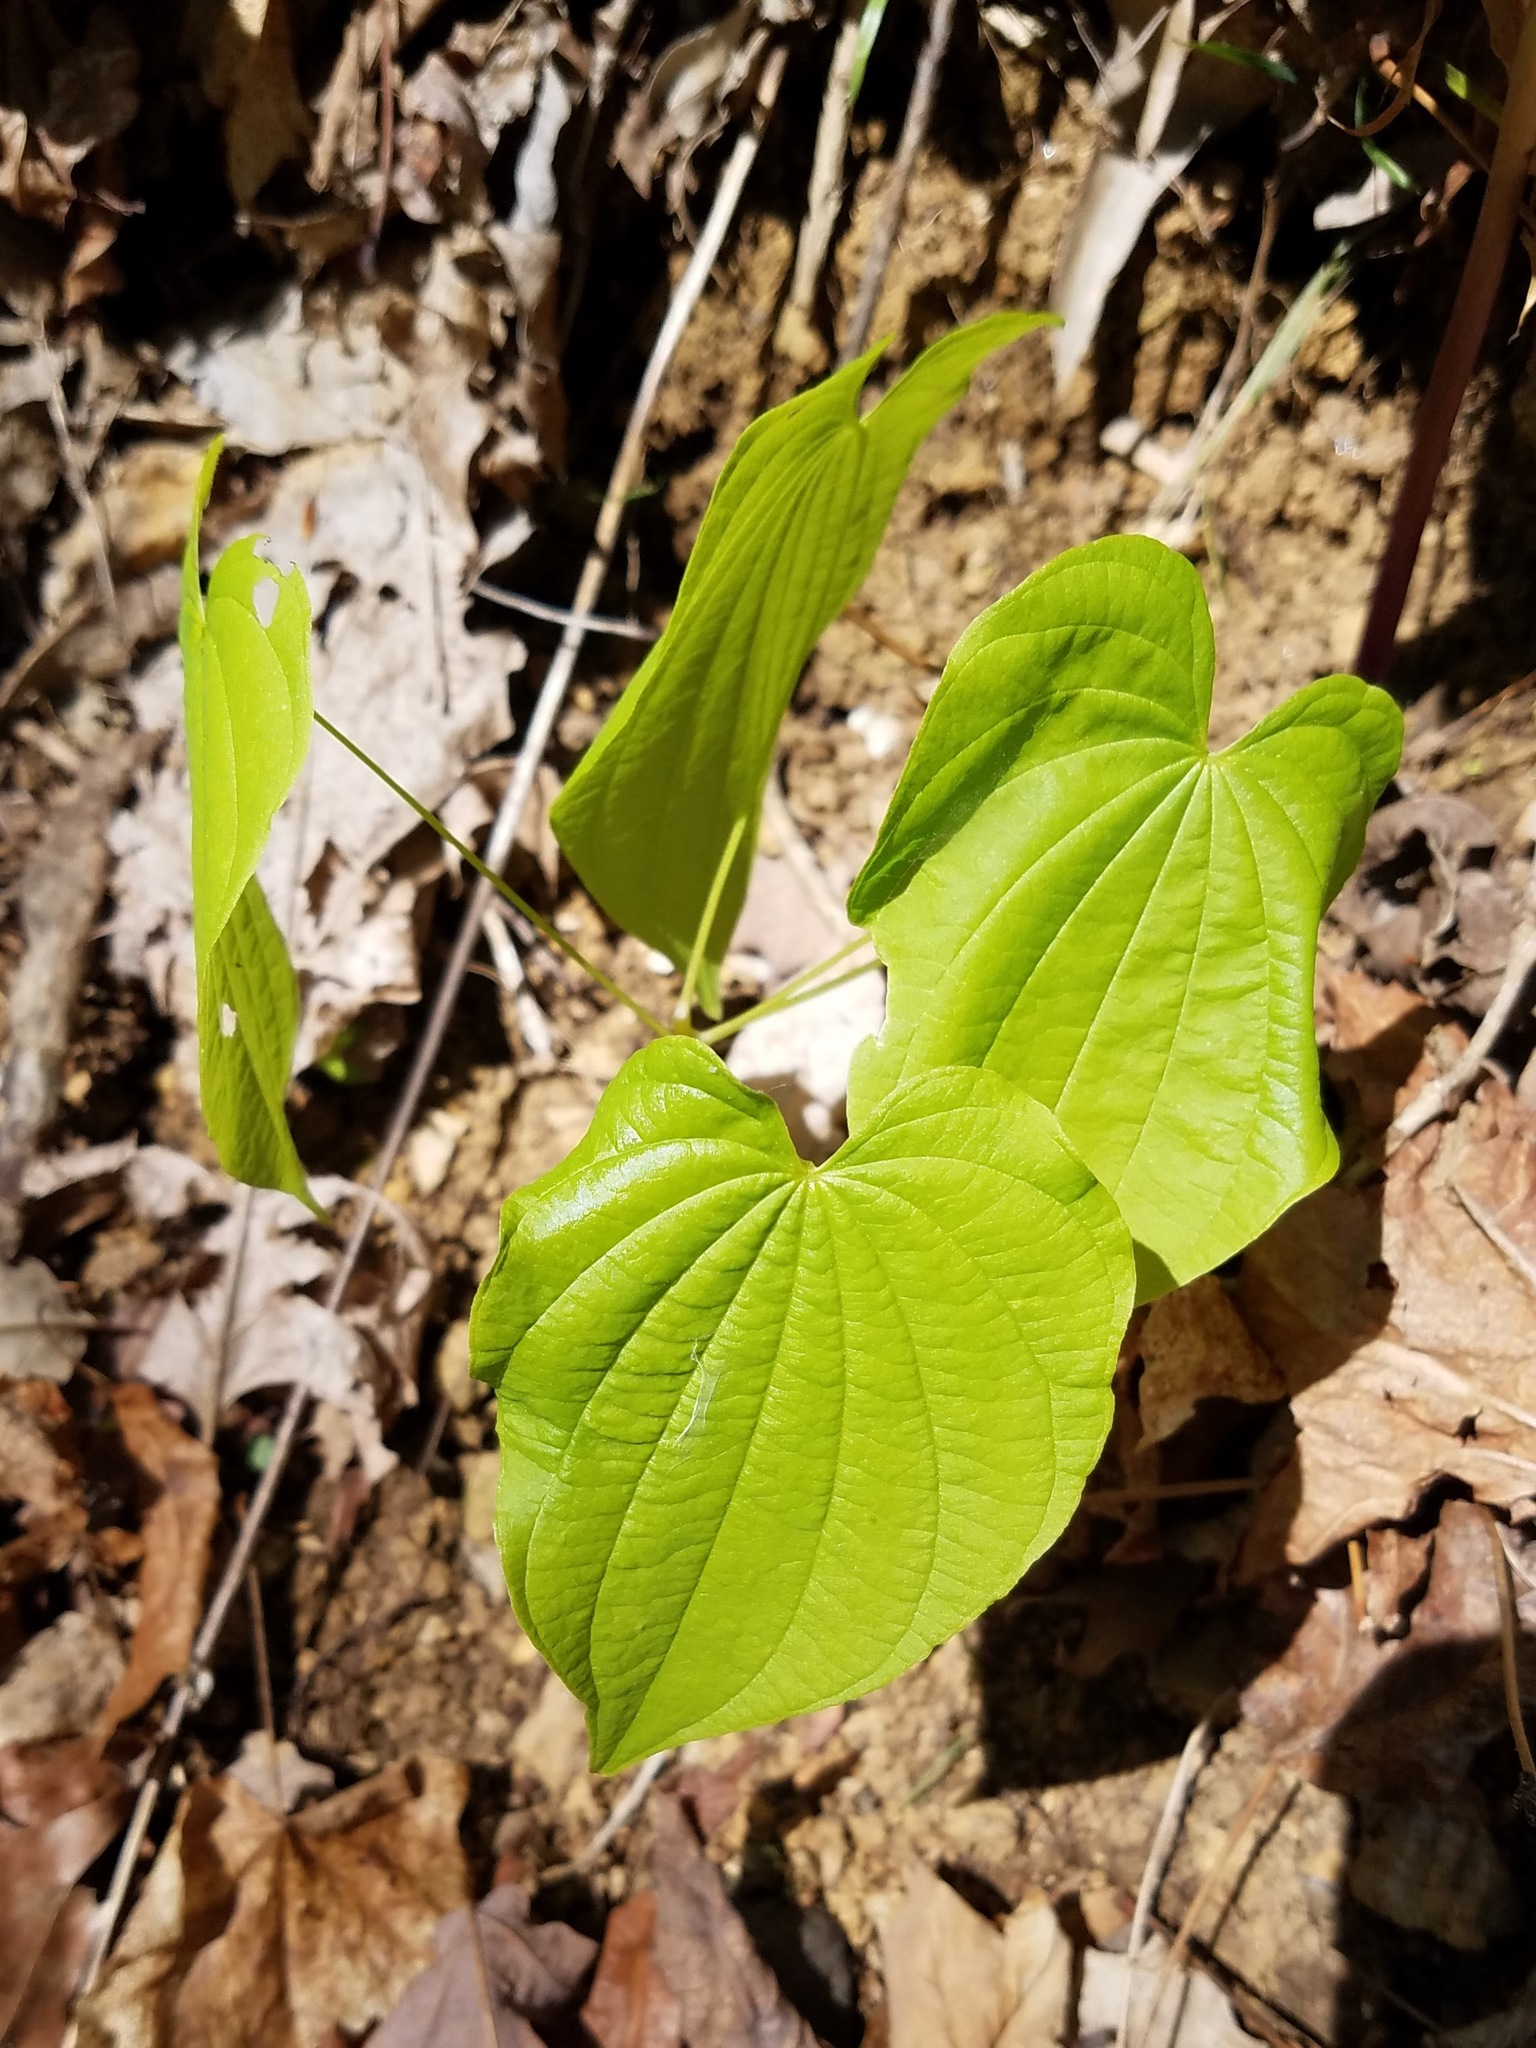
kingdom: Plantae
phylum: Tracheophyta
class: Liliopsida
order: Dioscoreales
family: Dioscoreaceae
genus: Dioscorea
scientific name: Dioscorea villosa
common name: Wild yam
